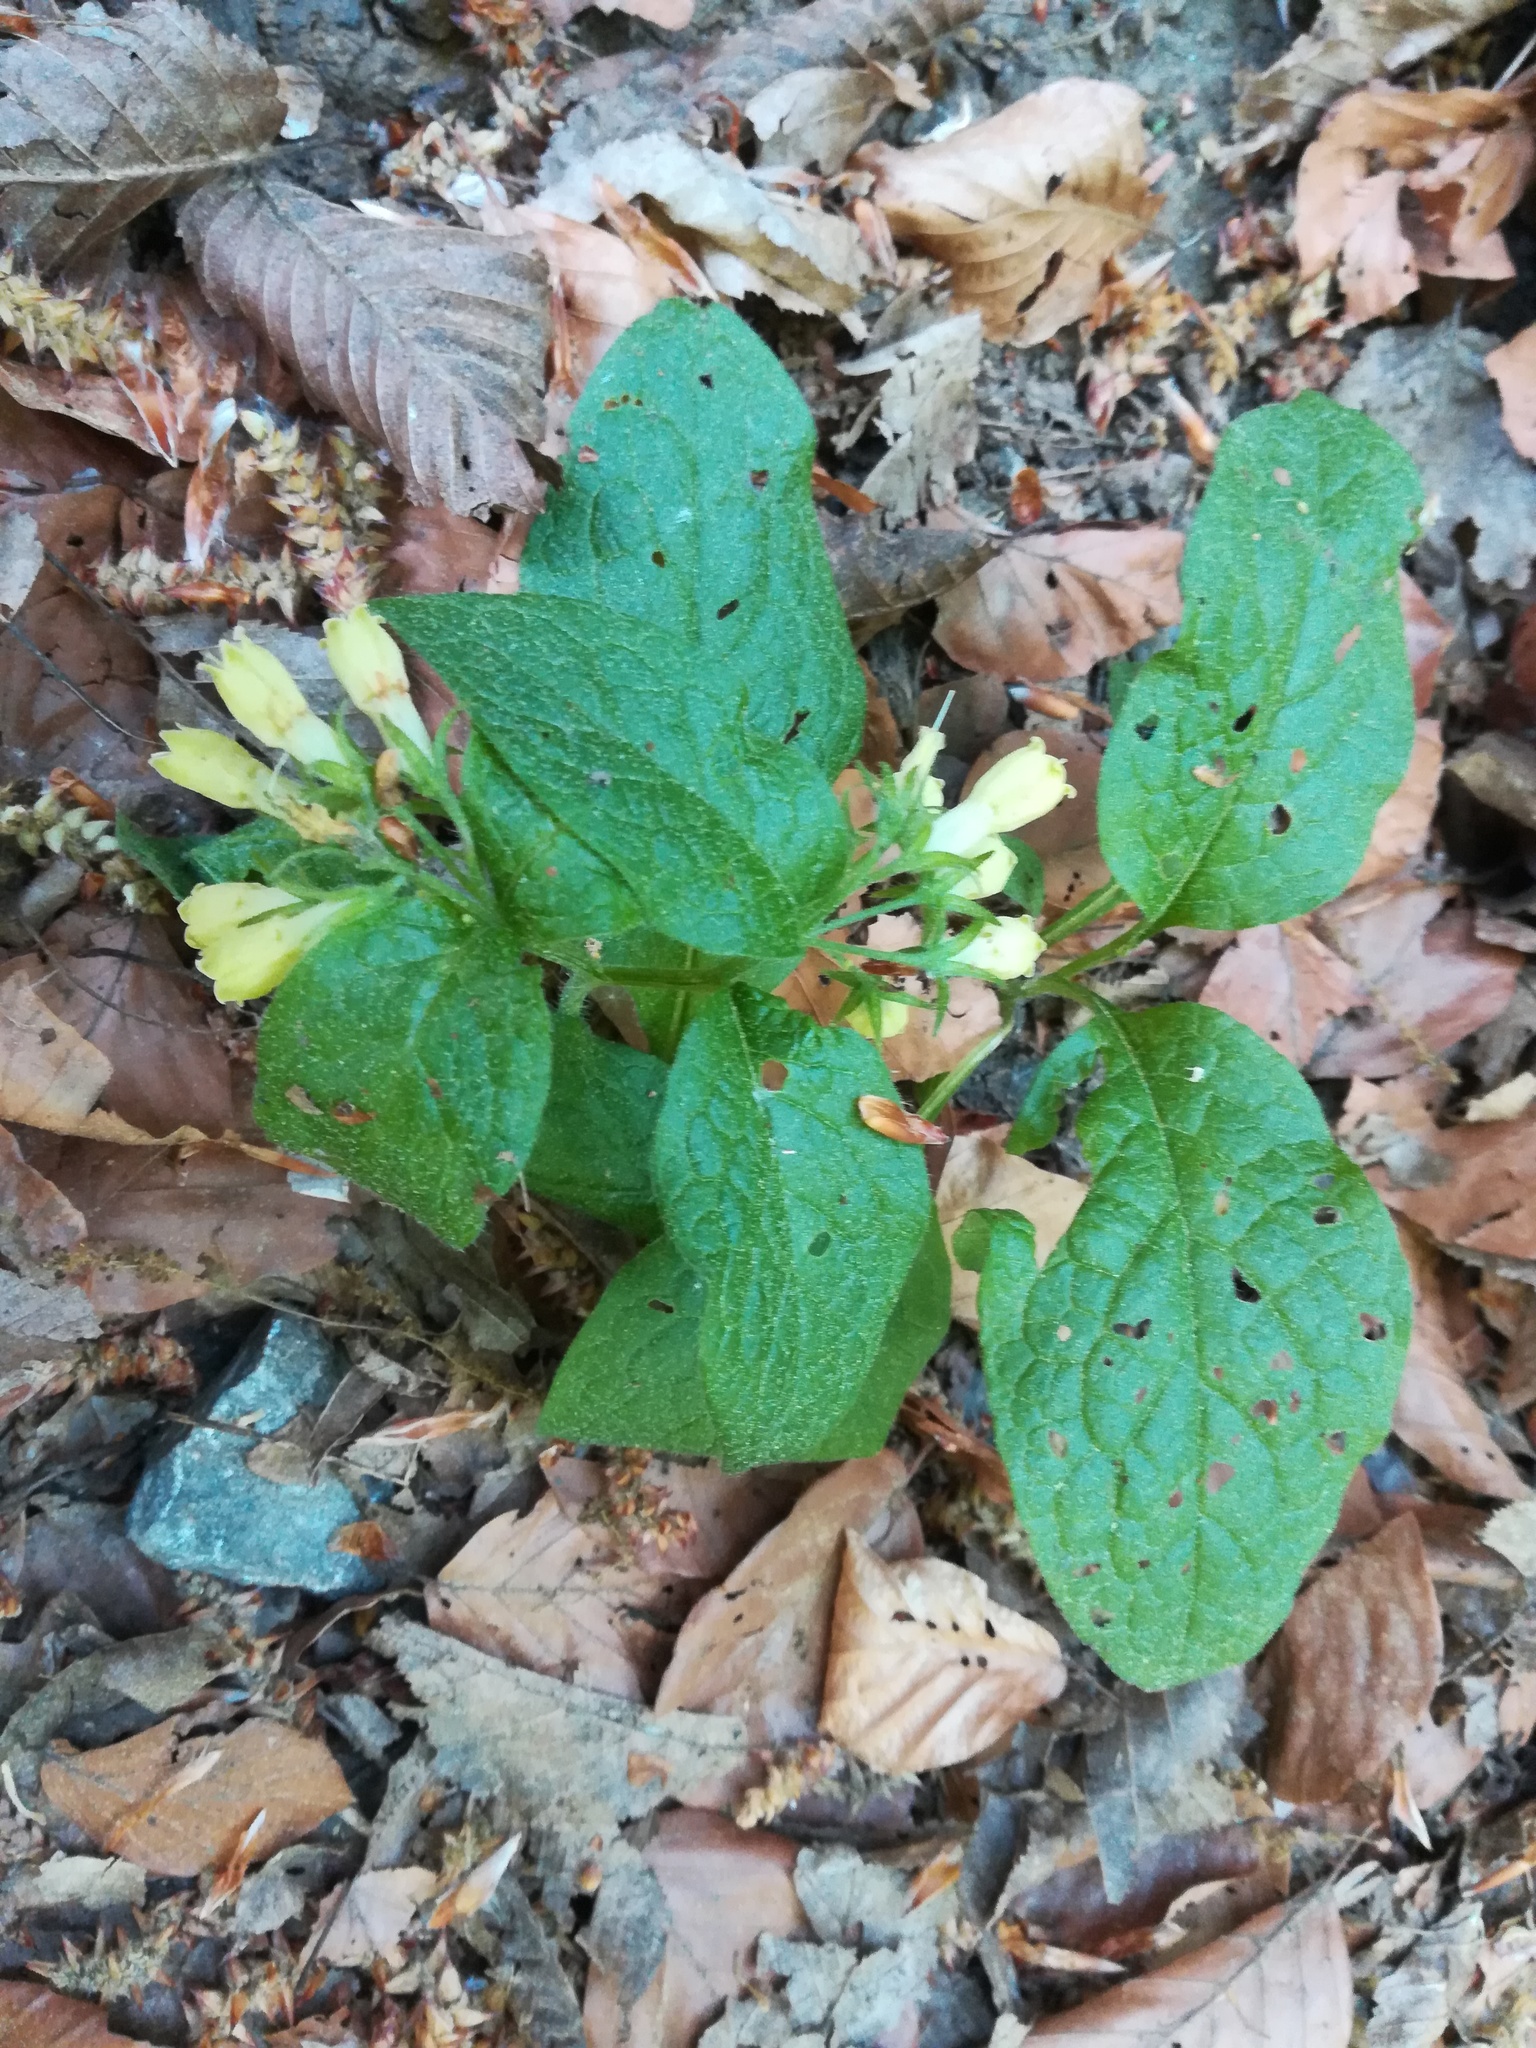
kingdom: Plantae
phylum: Tracheophyta
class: Magnoliopsida
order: Boraginales
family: Boraginaceae
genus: Symphytum
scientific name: Symphytum tuberosum
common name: Tuberous comfrey
